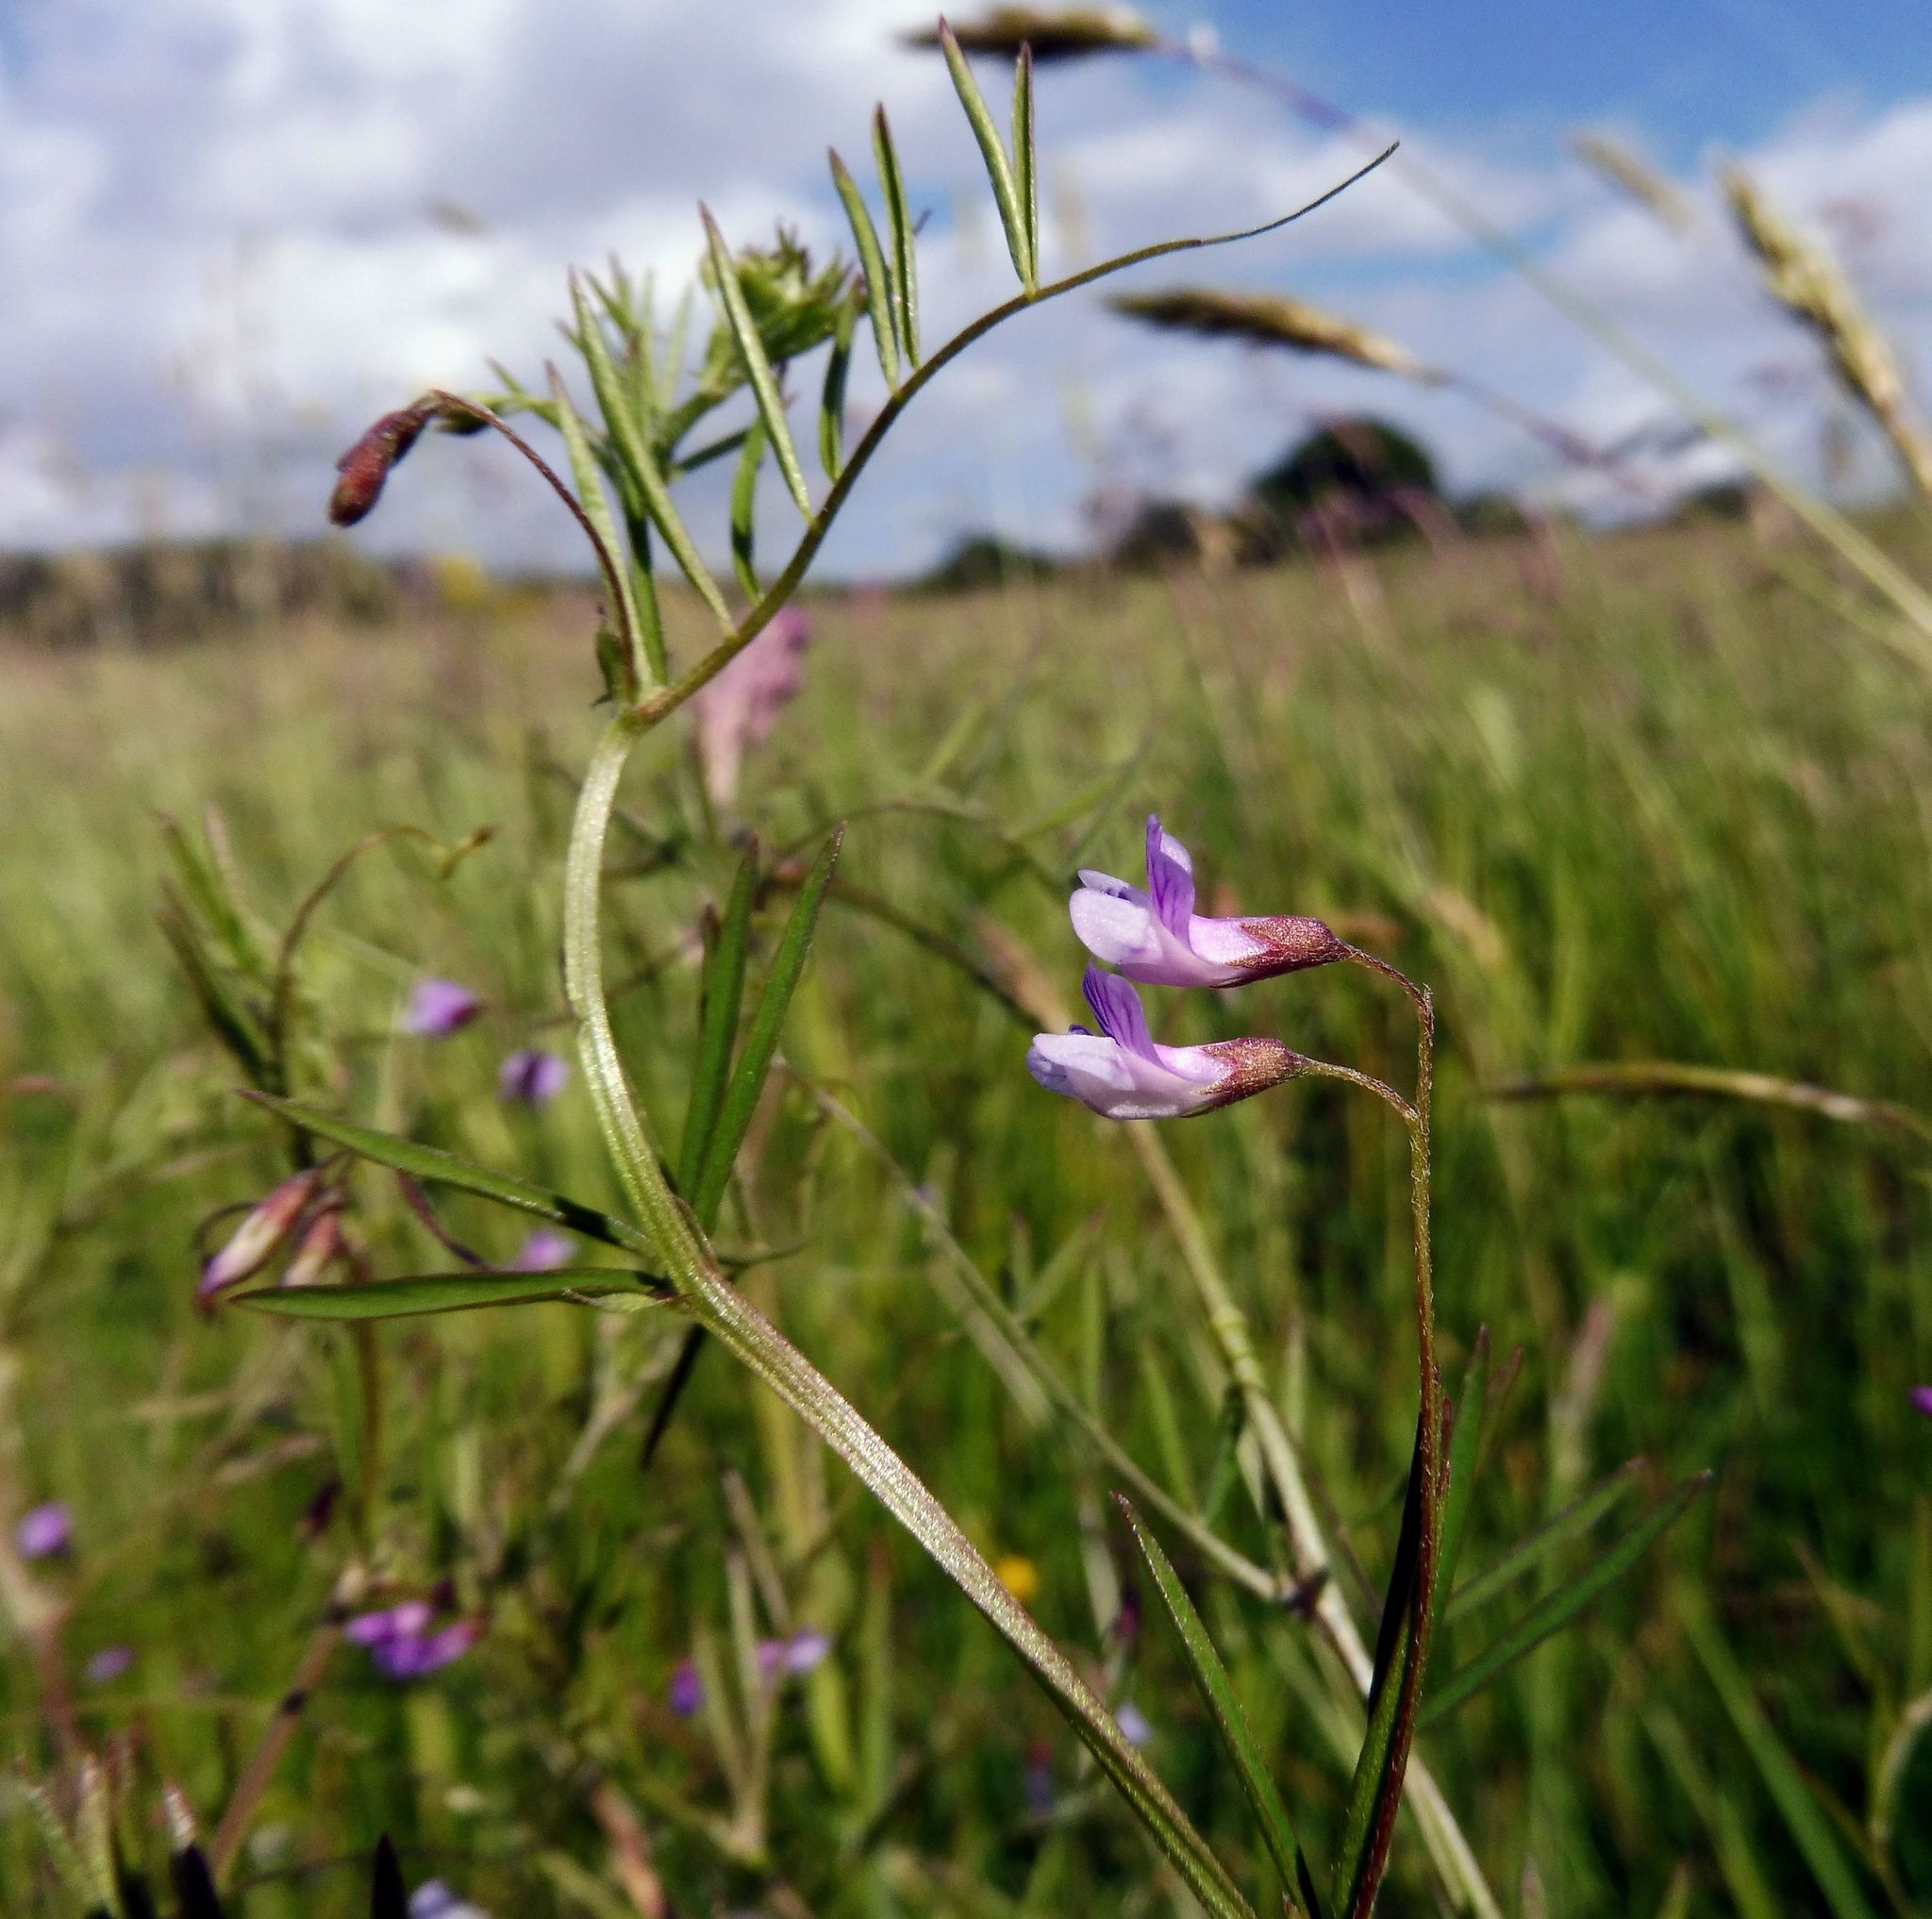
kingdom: Plantae
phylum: Tracheophyta
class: Magnoliopsida
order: Fabales
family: Fabaceae
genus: Vicia
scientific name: Vicia tetrasperma
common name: Smooth tare
